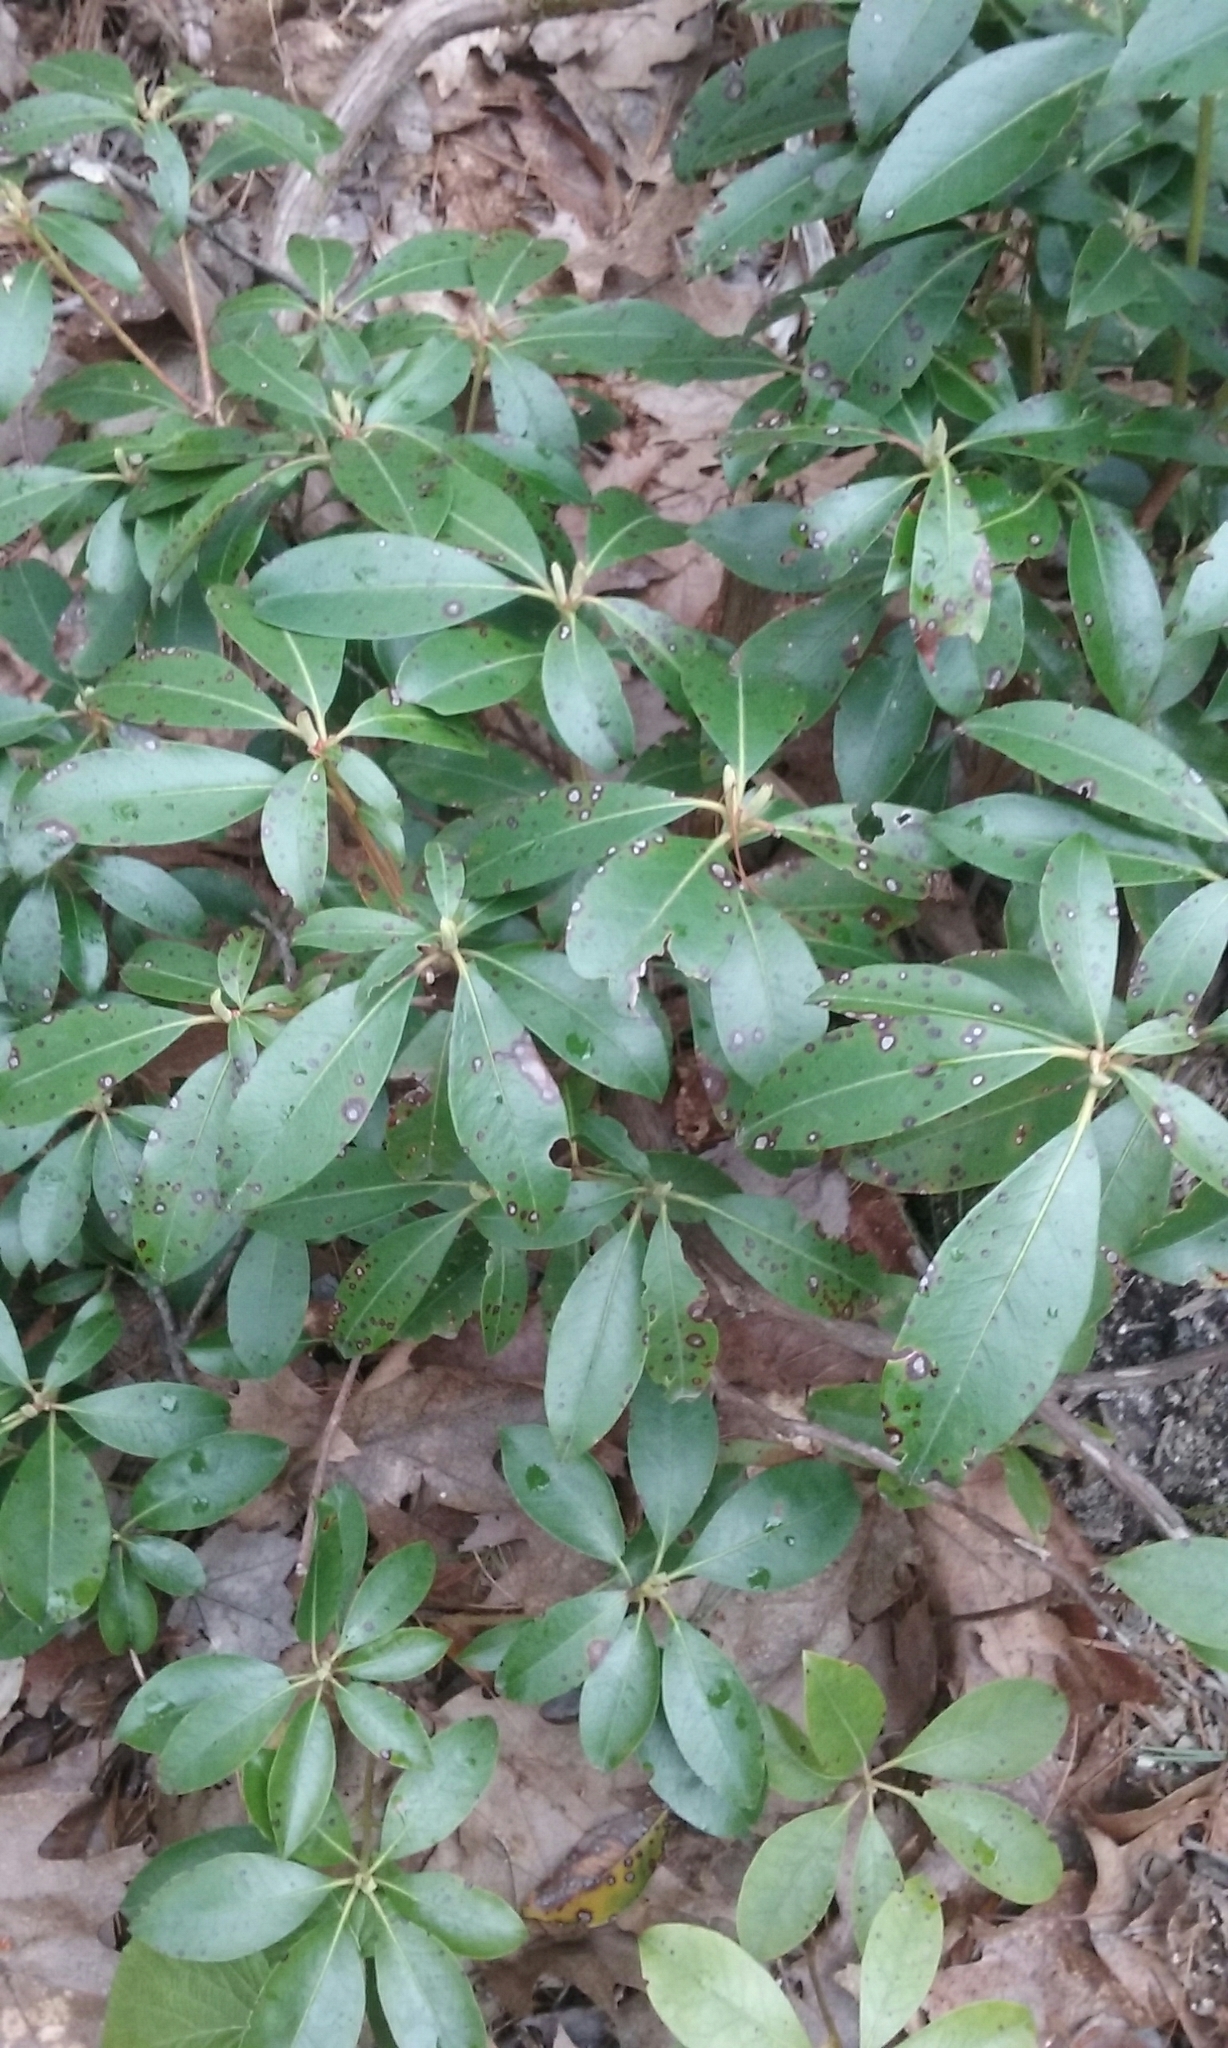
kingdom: Plantae
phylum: Tracheophyta
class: Magnoliopsida
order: Ericales
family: Ericaceae
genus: Kalmia
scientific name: Kalmia latifolia
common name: Mountain-laurel
